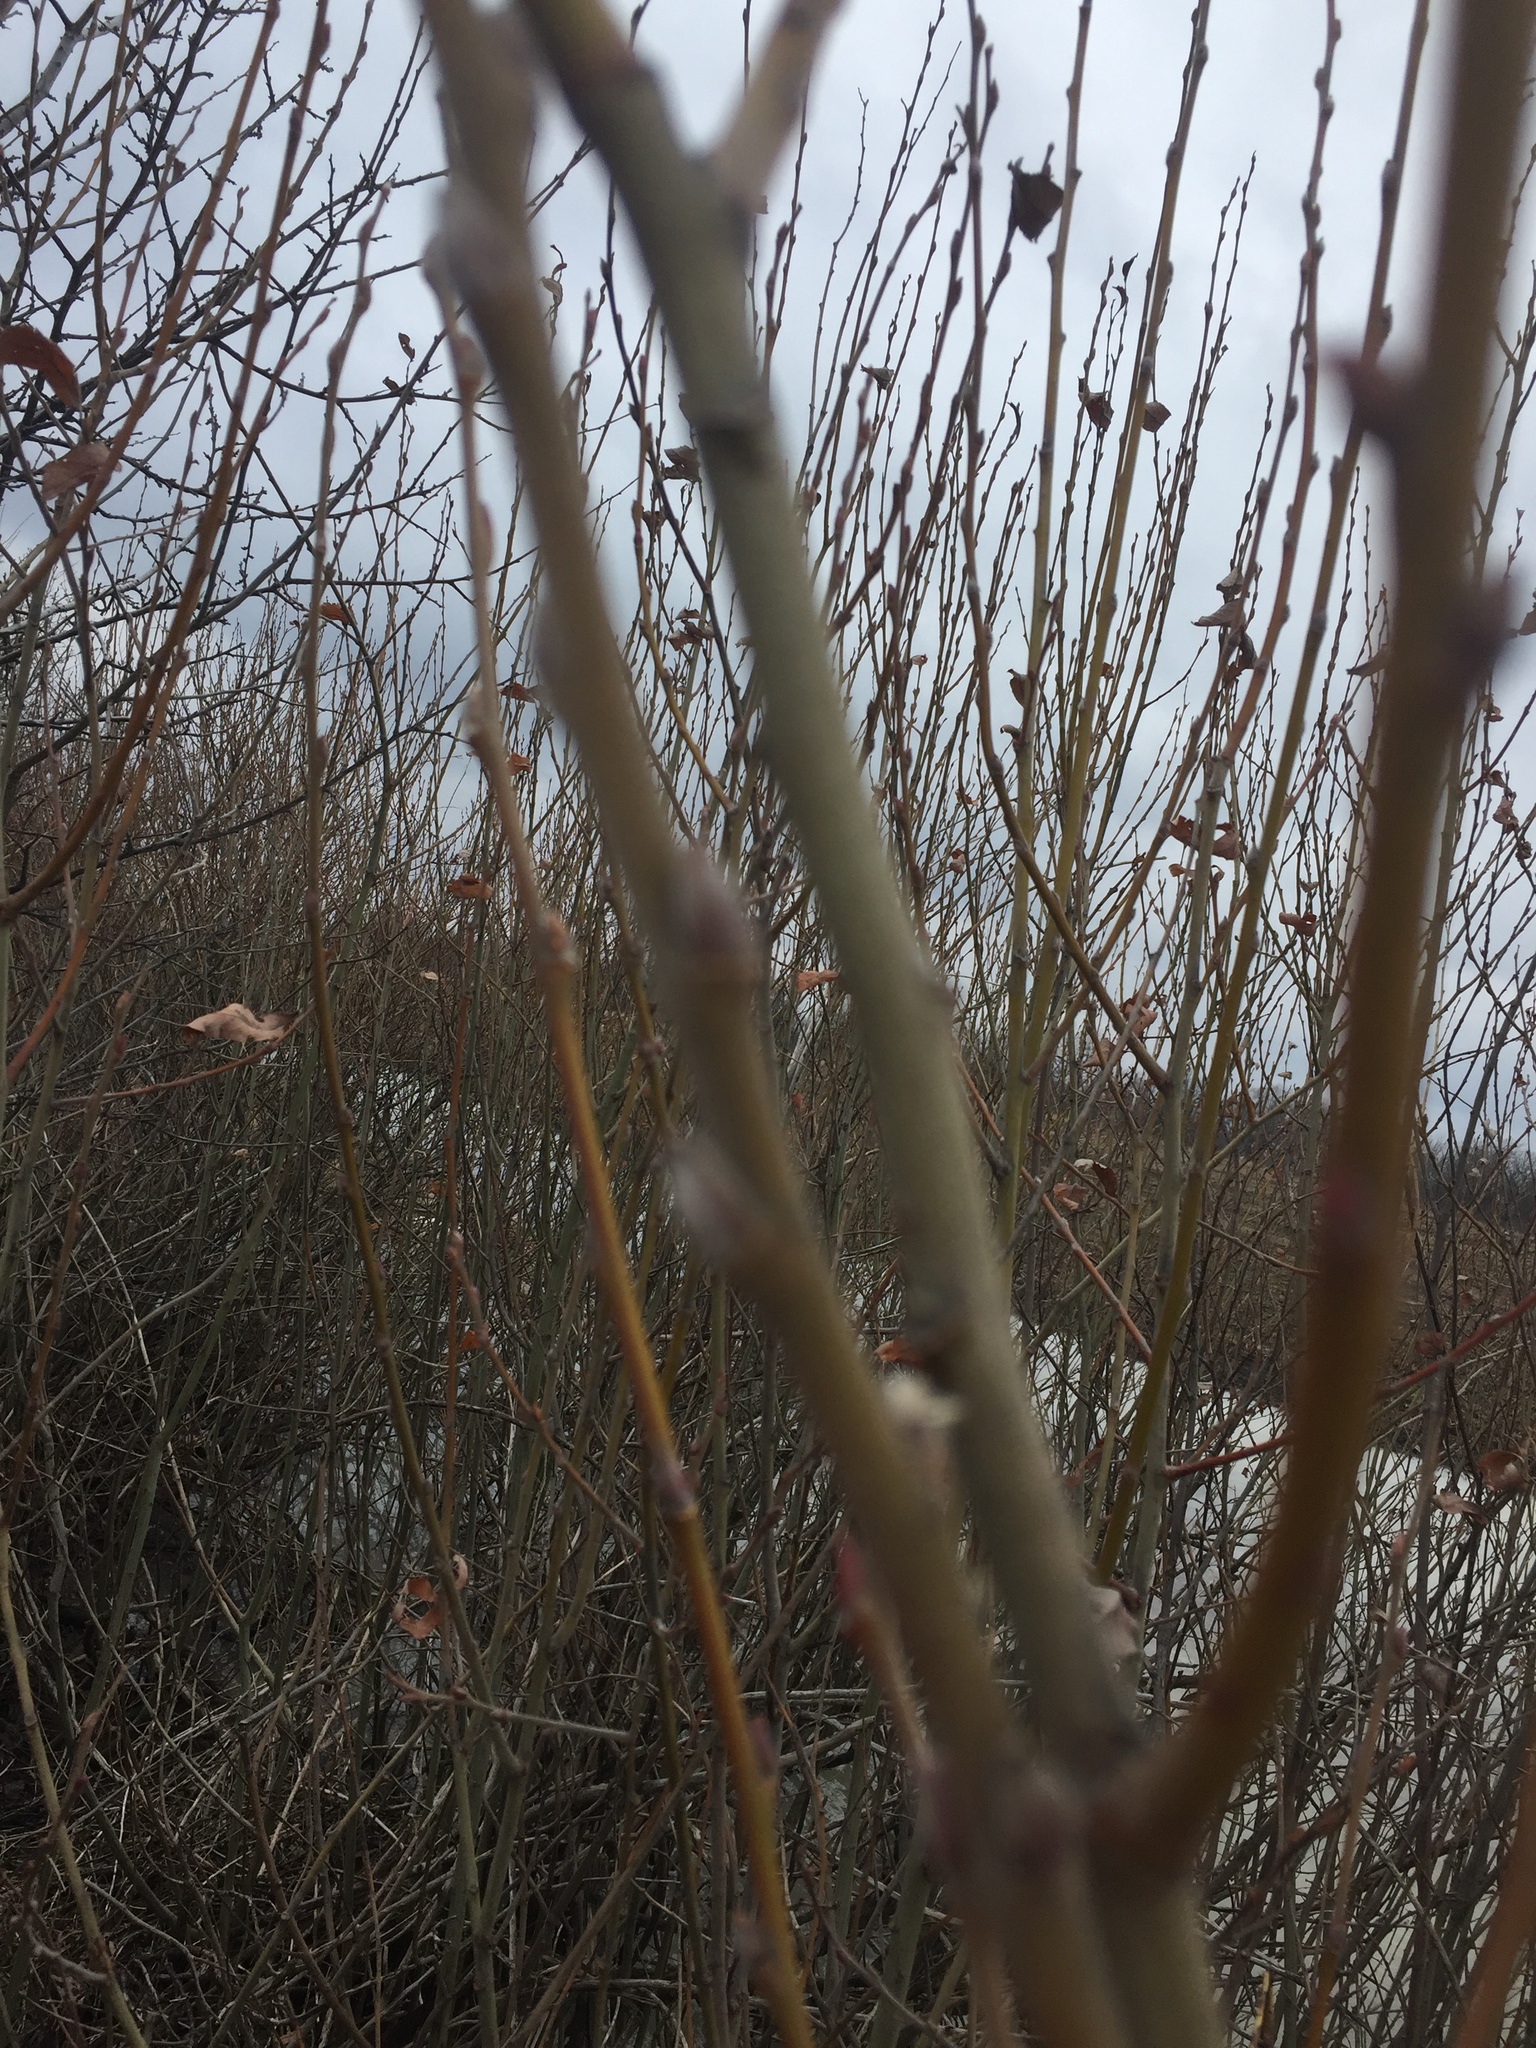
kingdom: Plantae
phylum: Tracheophyta
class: Magnoliopsida
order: Malpighiales
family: Salicaceae
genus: Salix
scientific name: Salix cinerea
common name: Common sallow
